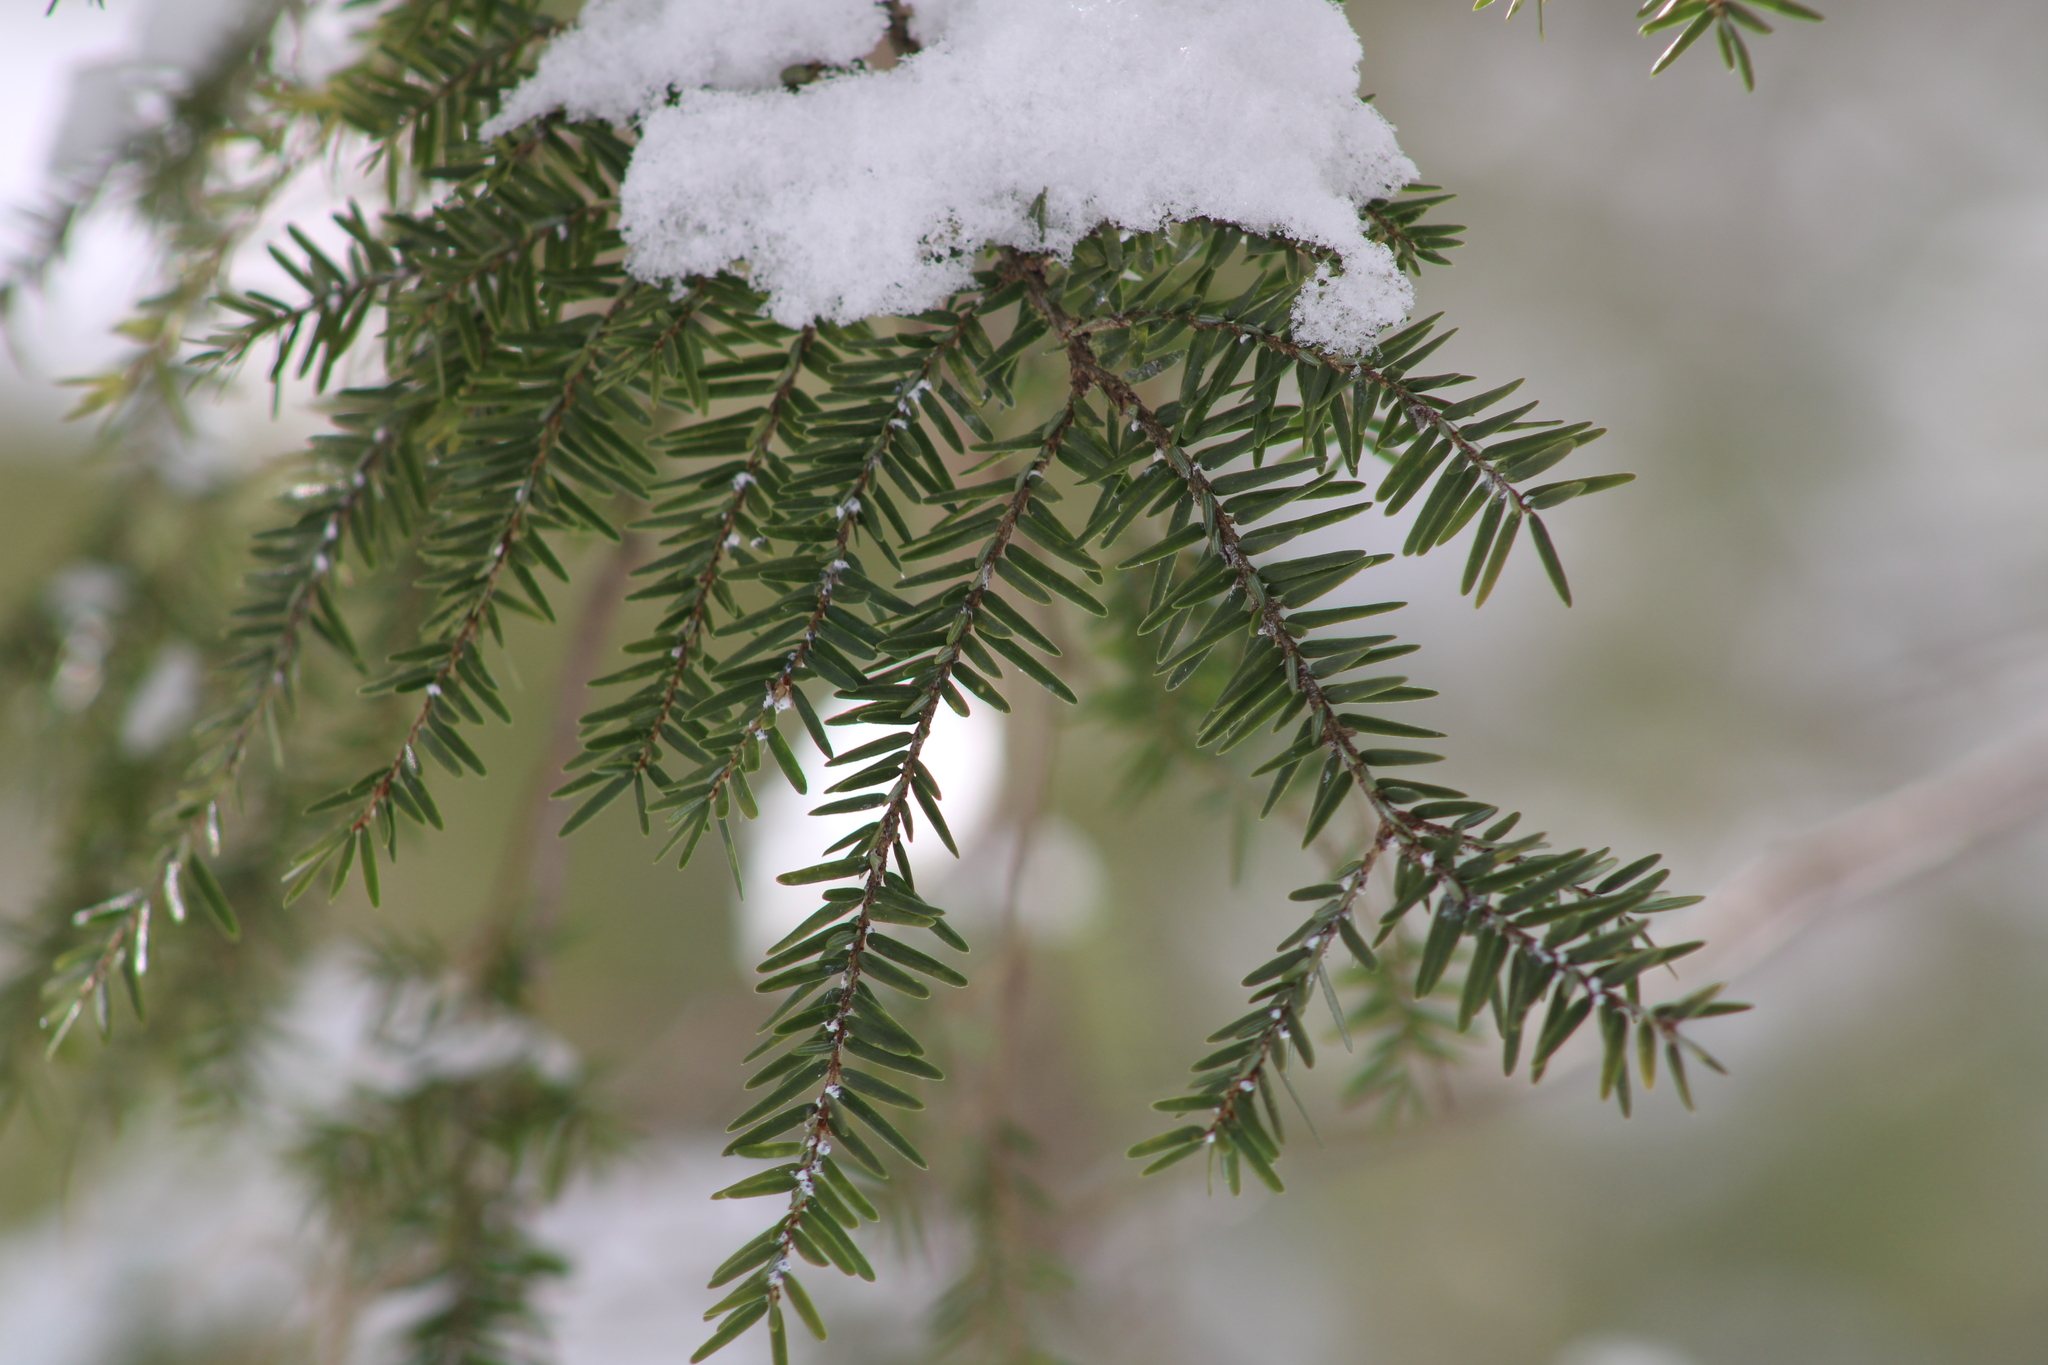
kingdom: Animalia
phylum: Arthropoda
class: Insecta
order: Hemiptera
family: Adelgidae
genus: Adelges
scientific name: Adelges tsugae
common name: Hemlock woolly adelgid
